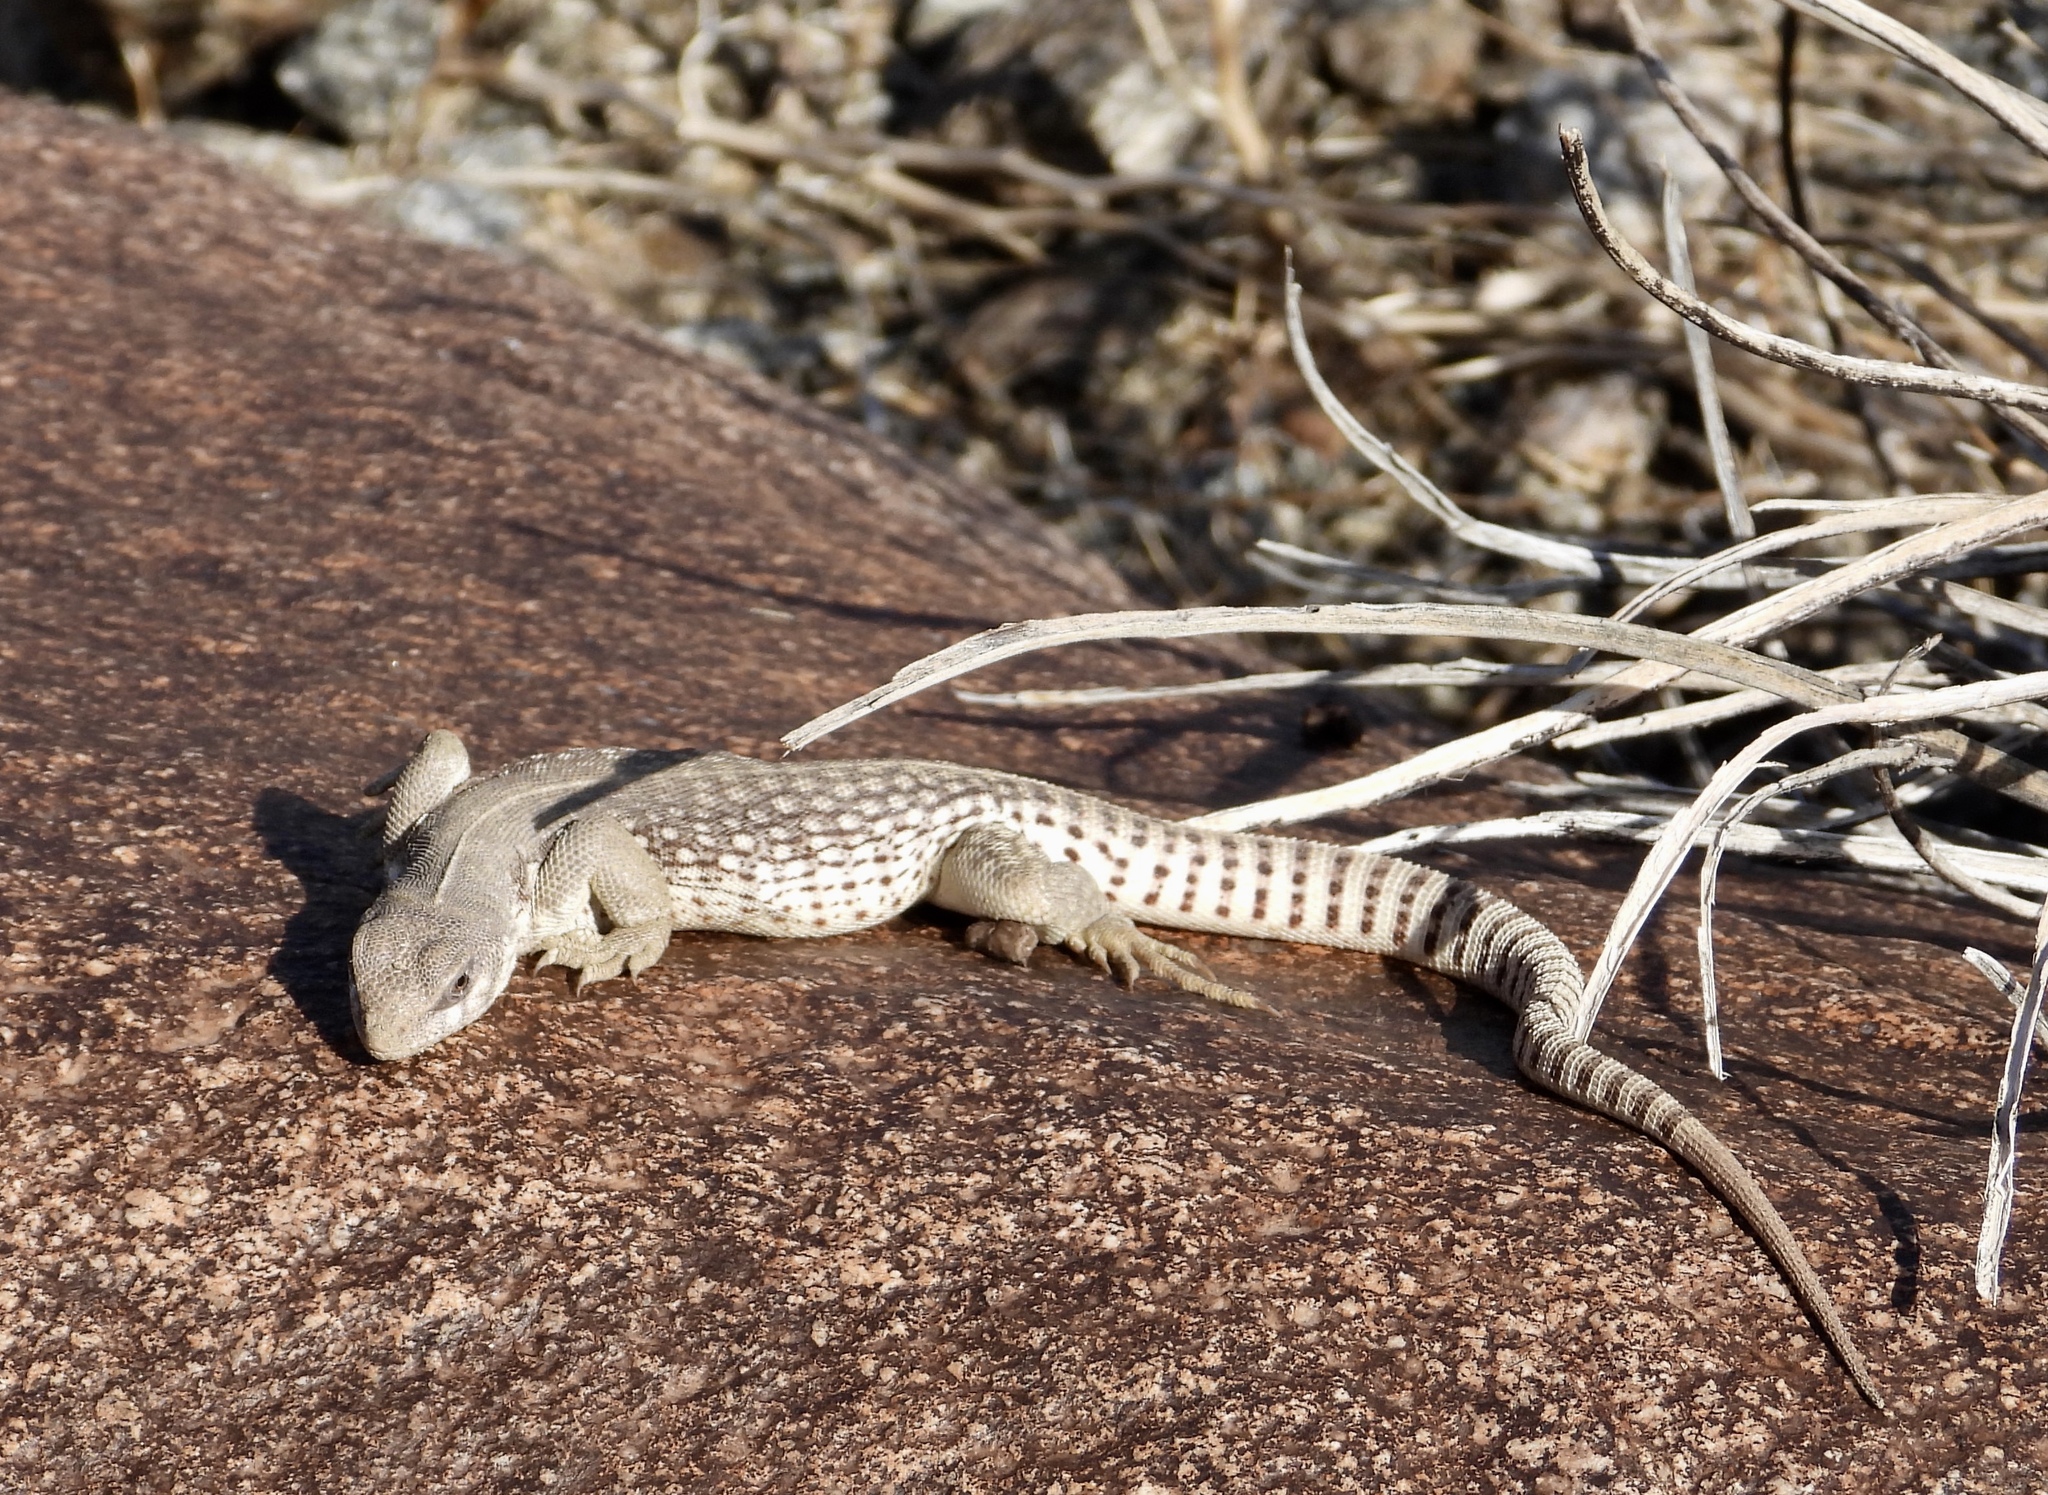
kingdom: Animalia
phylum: Chordata
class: Squamata
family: Iguanidae
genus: Dipsosaurus
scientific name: Dipsosaurus dorsalis
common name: Desert iguana
